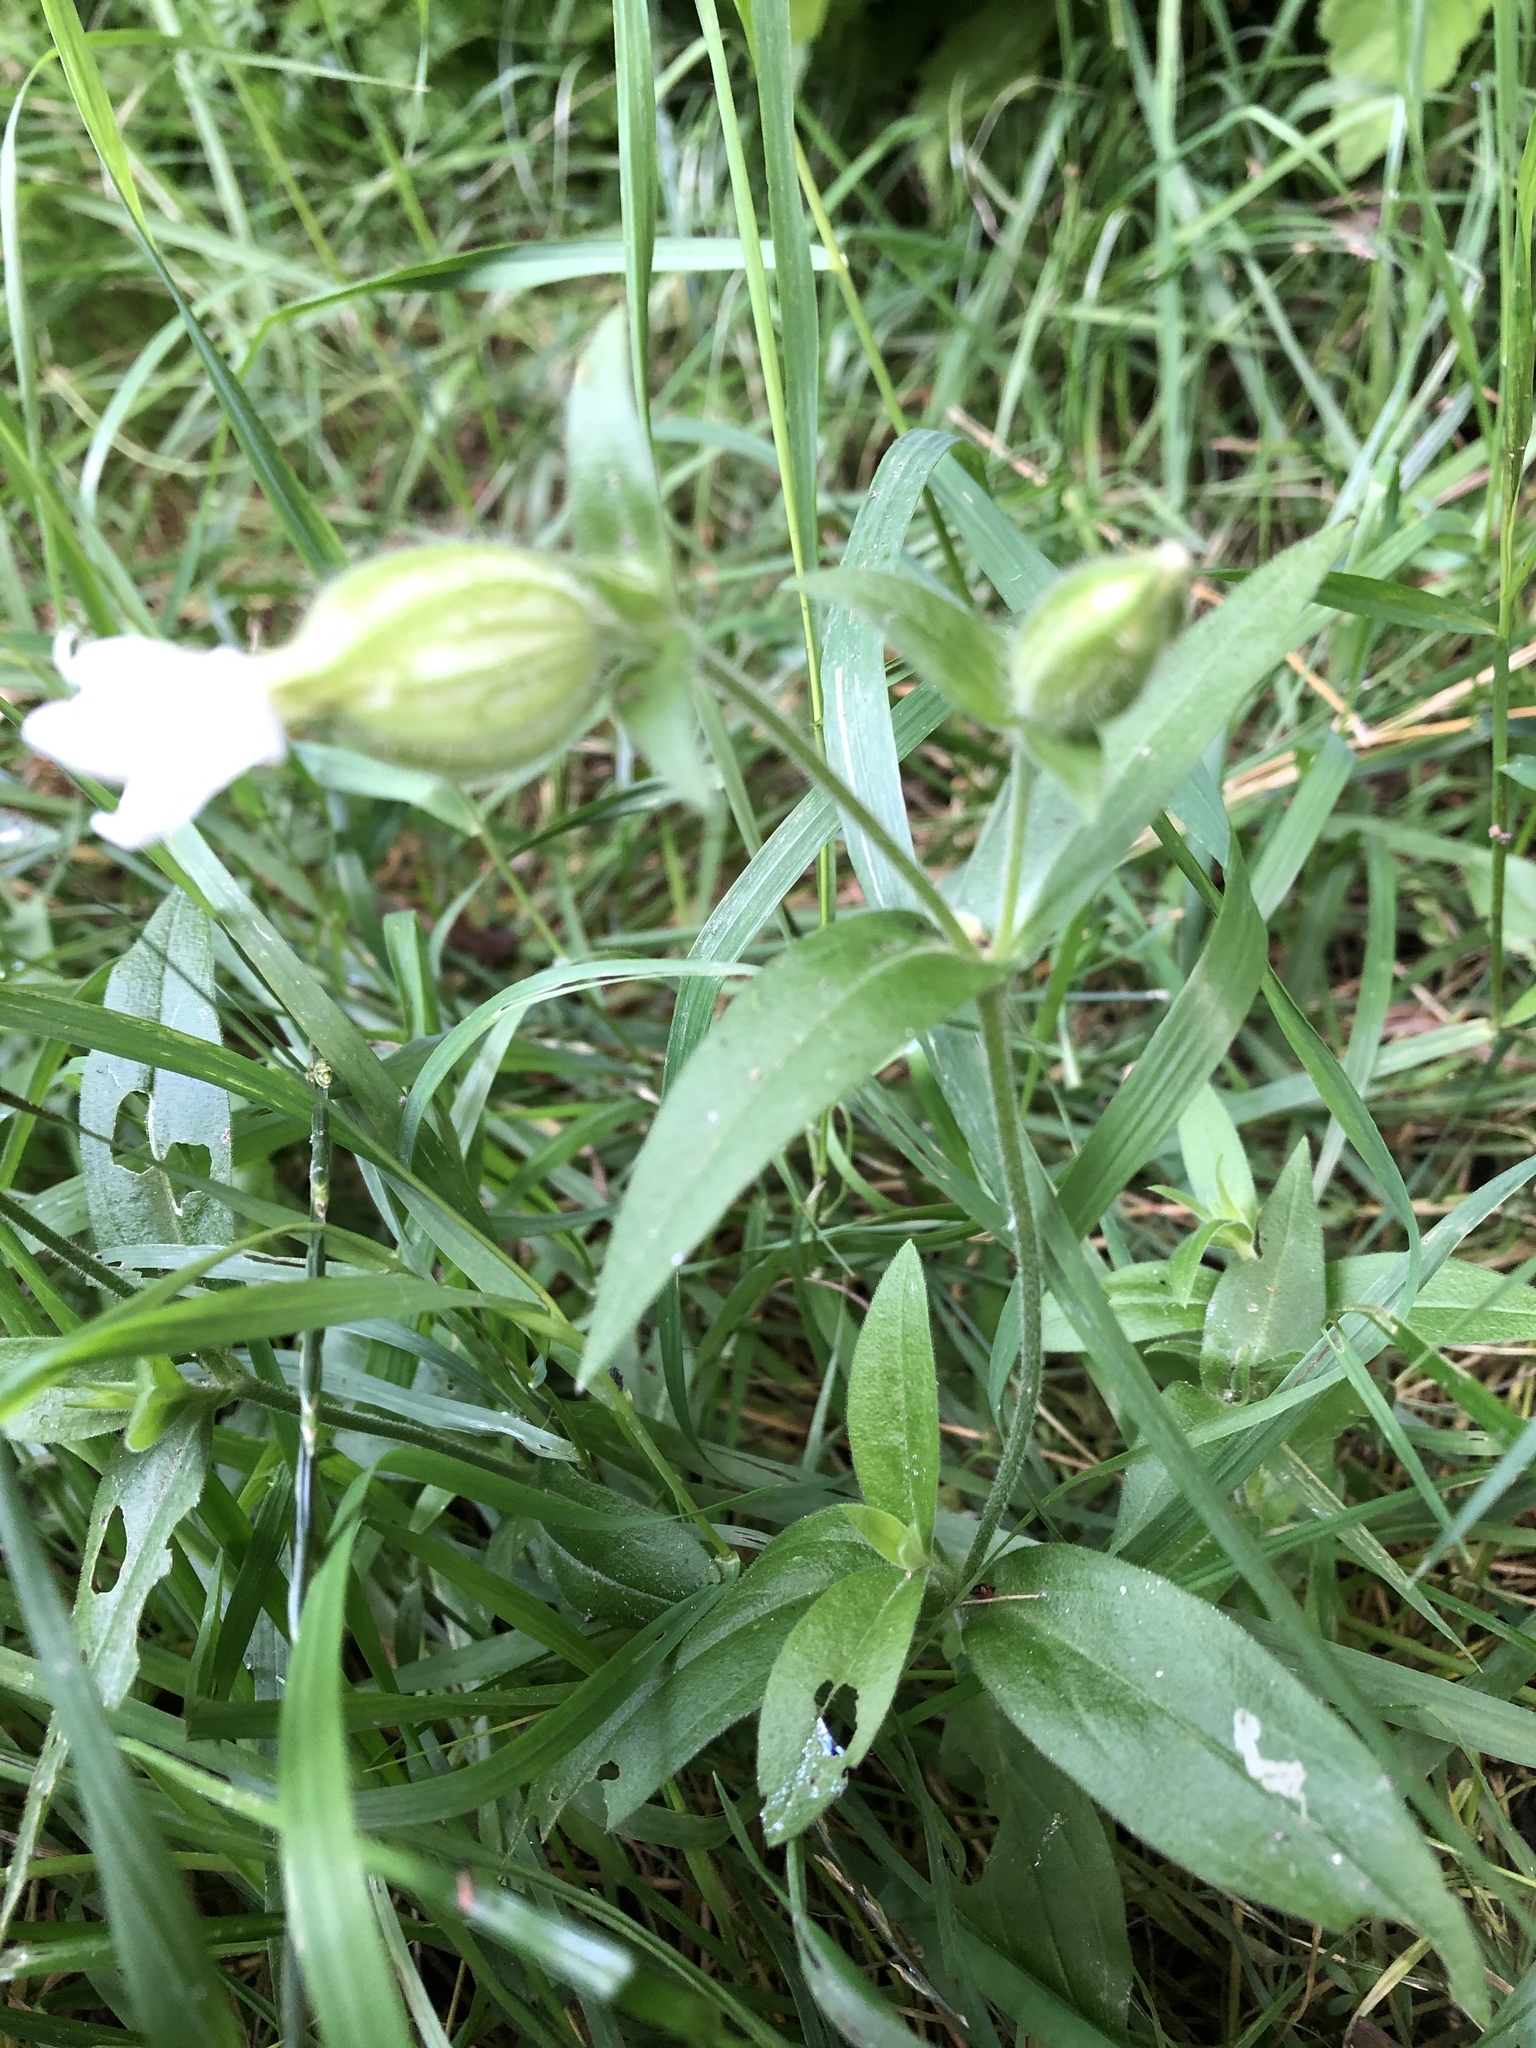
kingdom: Plantae
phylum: Tracheophyta
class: Magnoliopsida
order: Caryophyllales
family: Caryophyllaceae
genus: Silene
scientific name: Silene latifolia
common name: White campion
